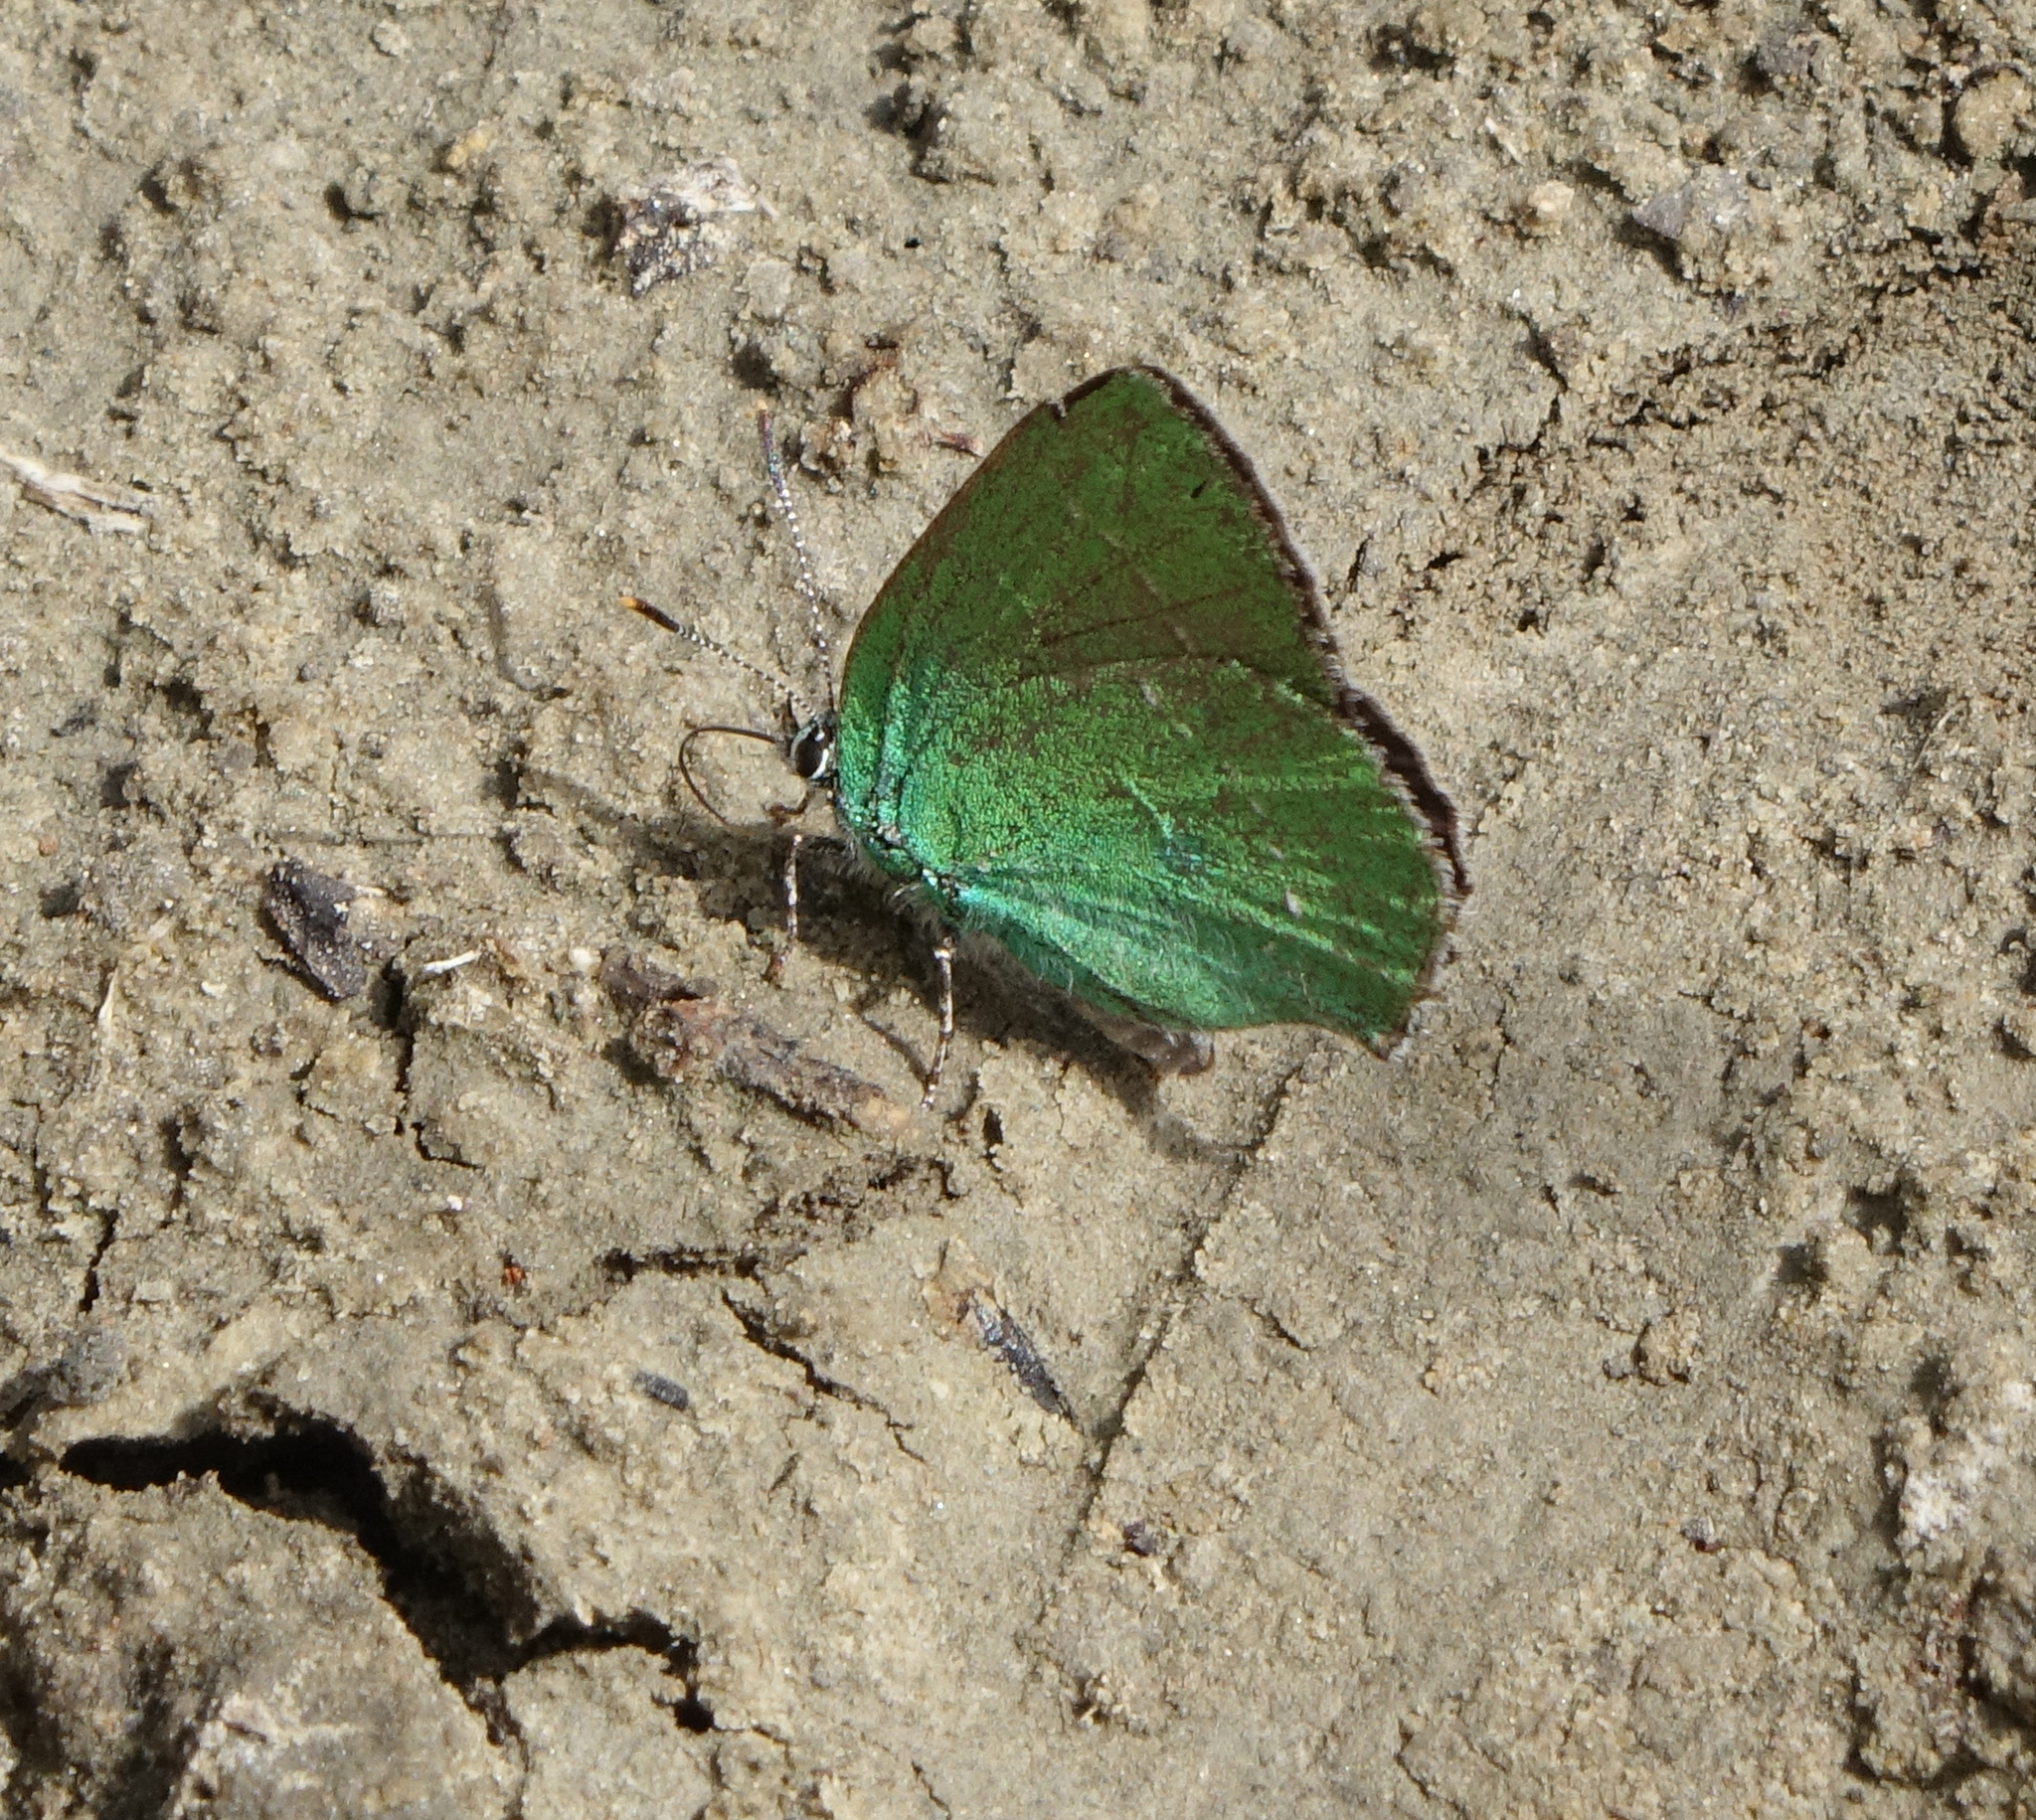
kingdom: Animalia
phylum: Arthropoda
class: Insecta
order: Lepidoptera
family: Lycaenidae
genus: Callophrys
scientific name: Callophrys rubi
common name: Green hairstreak
